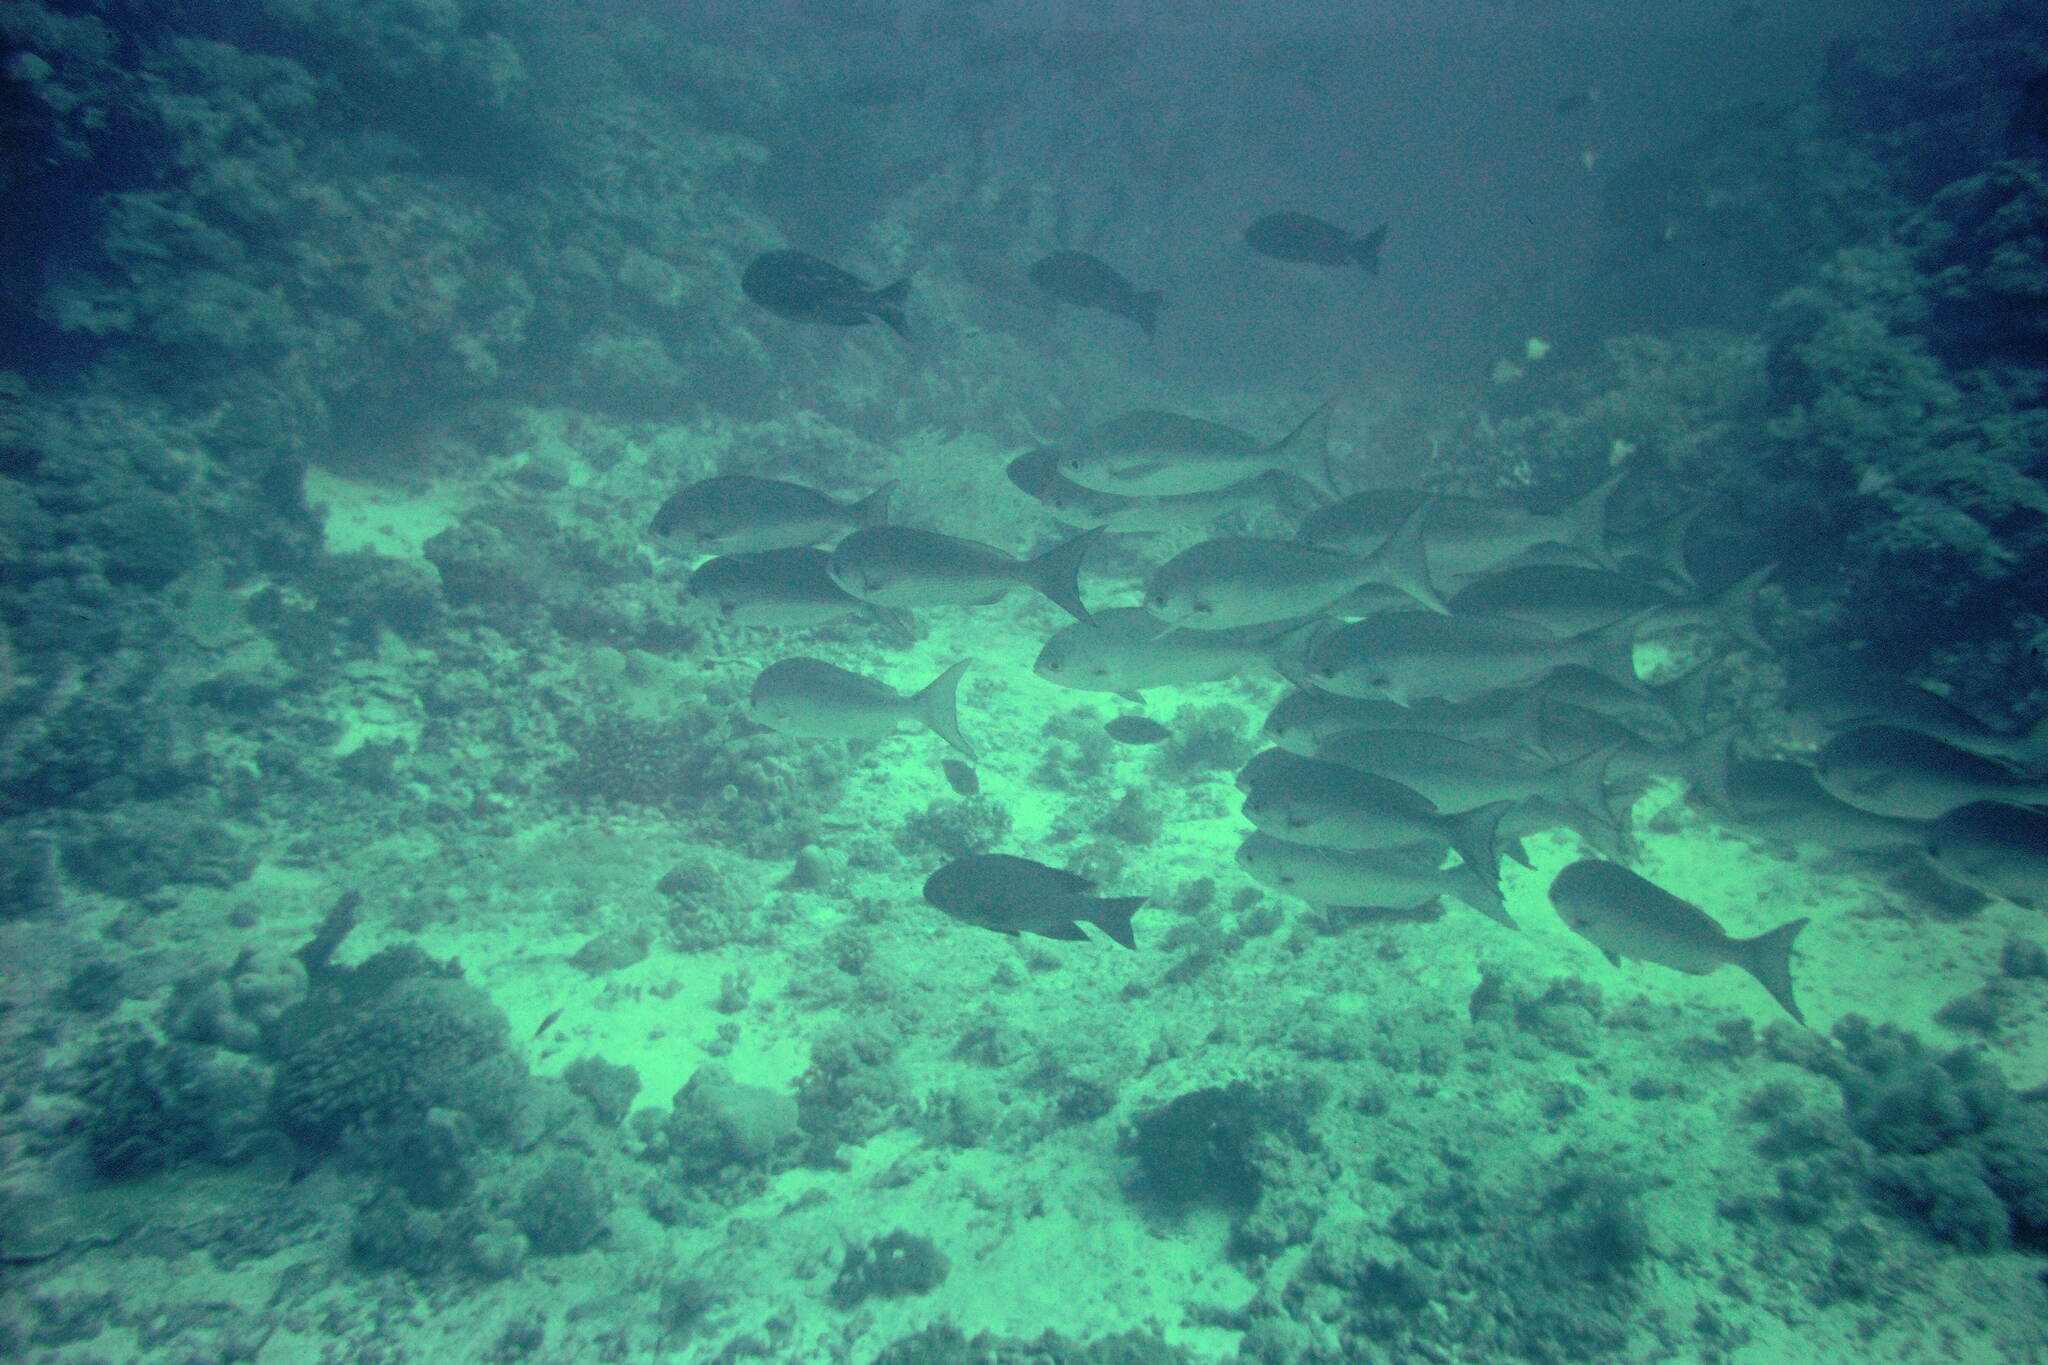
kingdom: Animalia
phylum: Chordata
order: Perciformes
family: Lutjanidae
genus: Pinjalo
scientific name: Pinjalo pinjalo
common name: Pinjalo snapper
